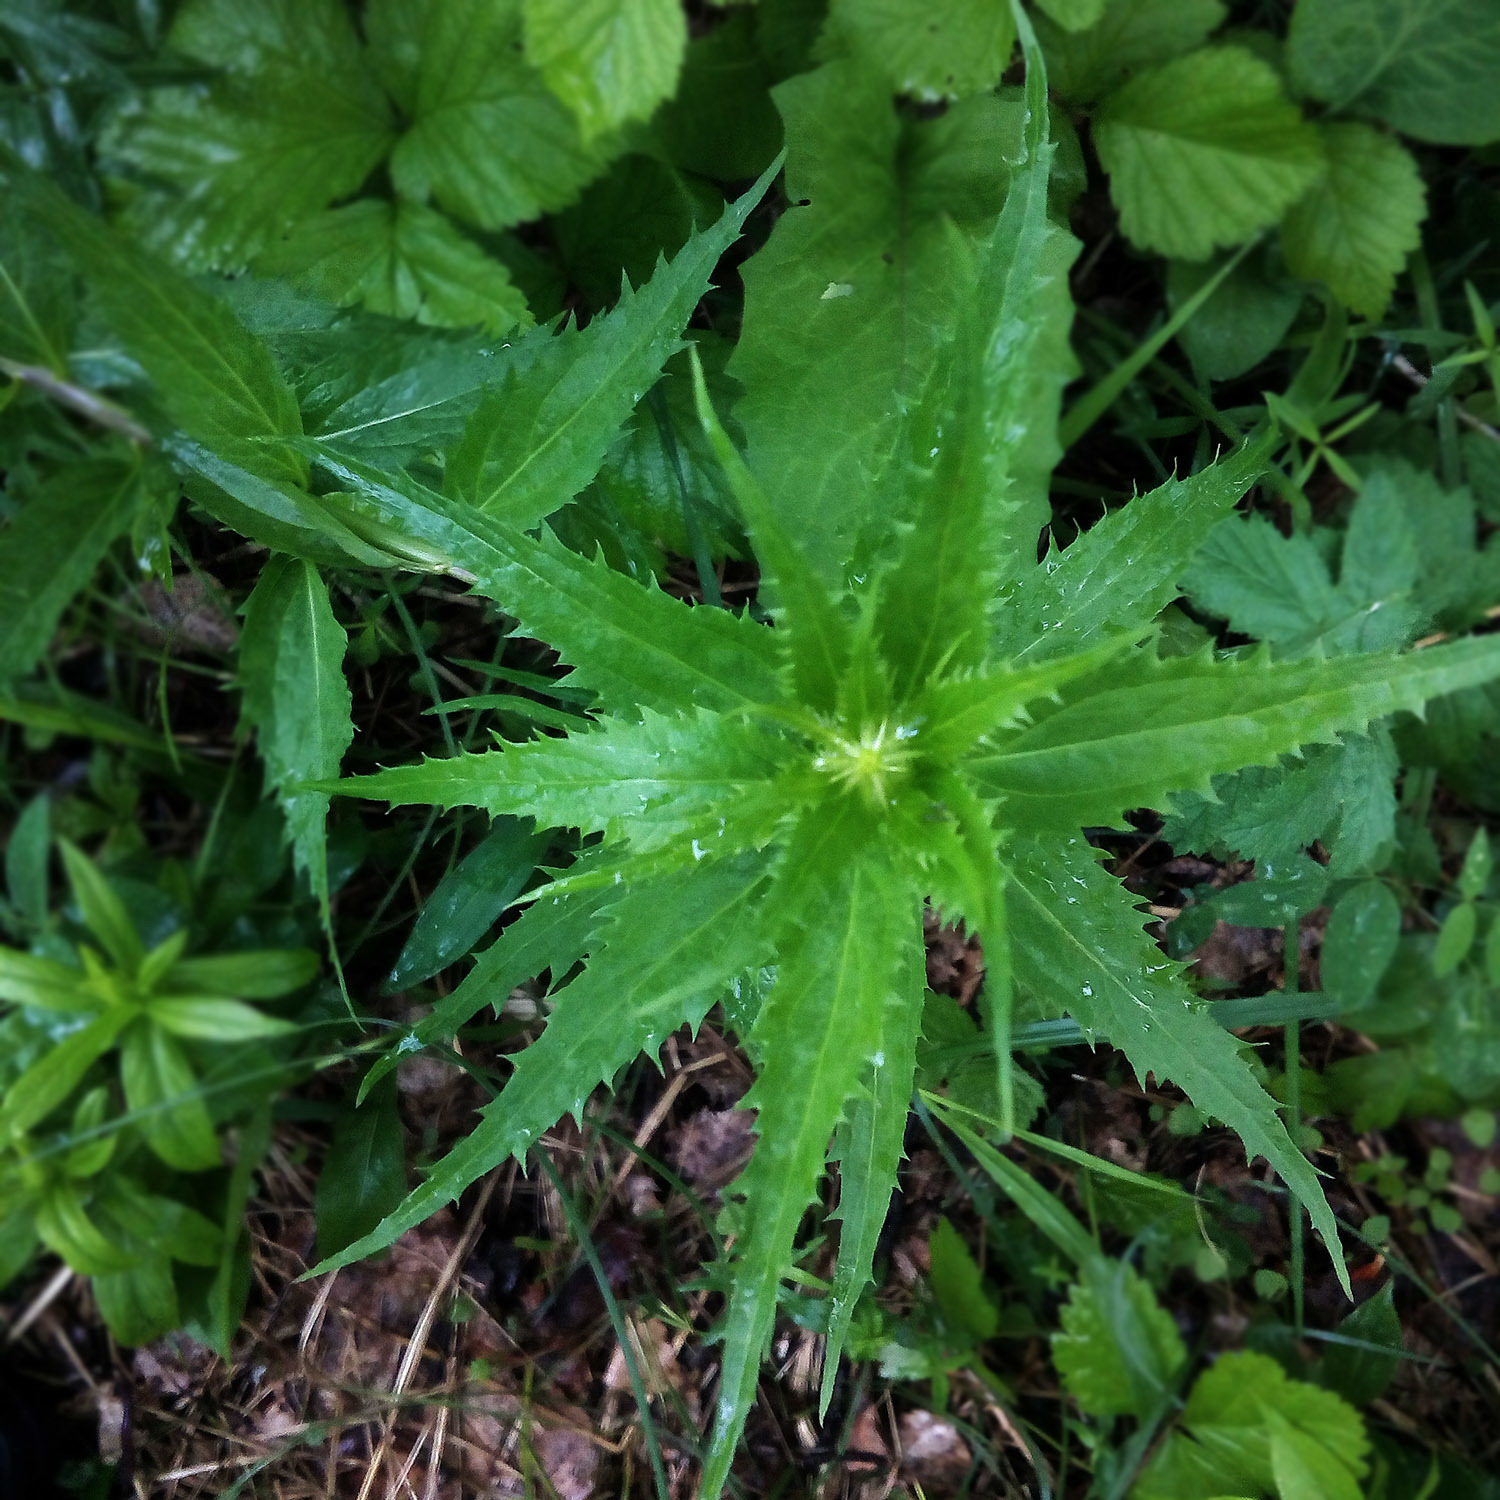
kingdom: Plantae
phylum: Tracheophyta
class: Magnoliopsida
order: Asterales
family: Campanulaceae
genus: Adenophora
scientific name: Adenophora liliifolia
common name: Lilyleaf ladybells
